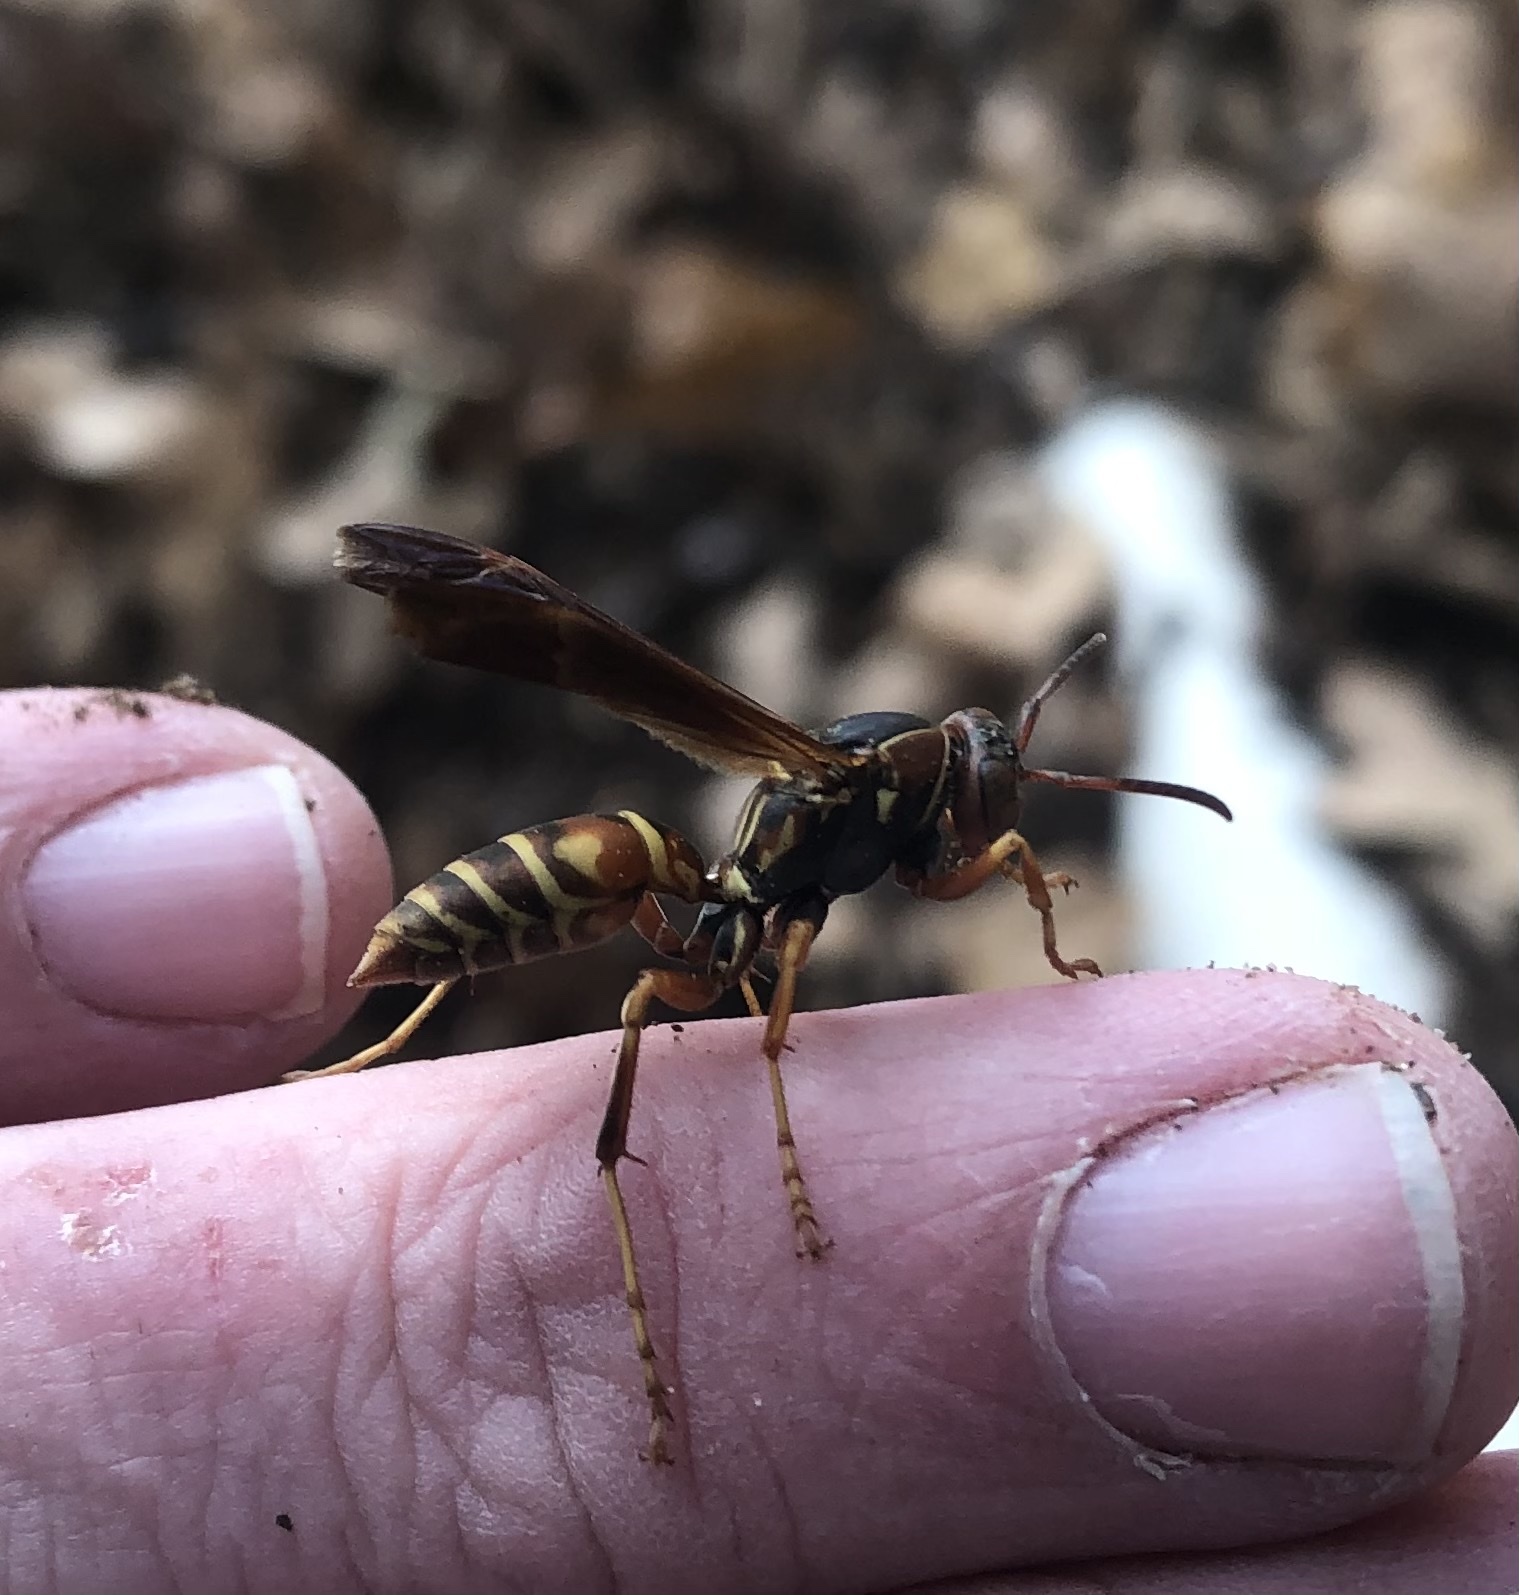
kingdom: Animalia
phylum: Arthropoda
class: Insecta
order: Hymenoptera
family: Eumenidae
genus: Polistes
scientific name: Polistes fuscatus
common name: Dark paper wasp
